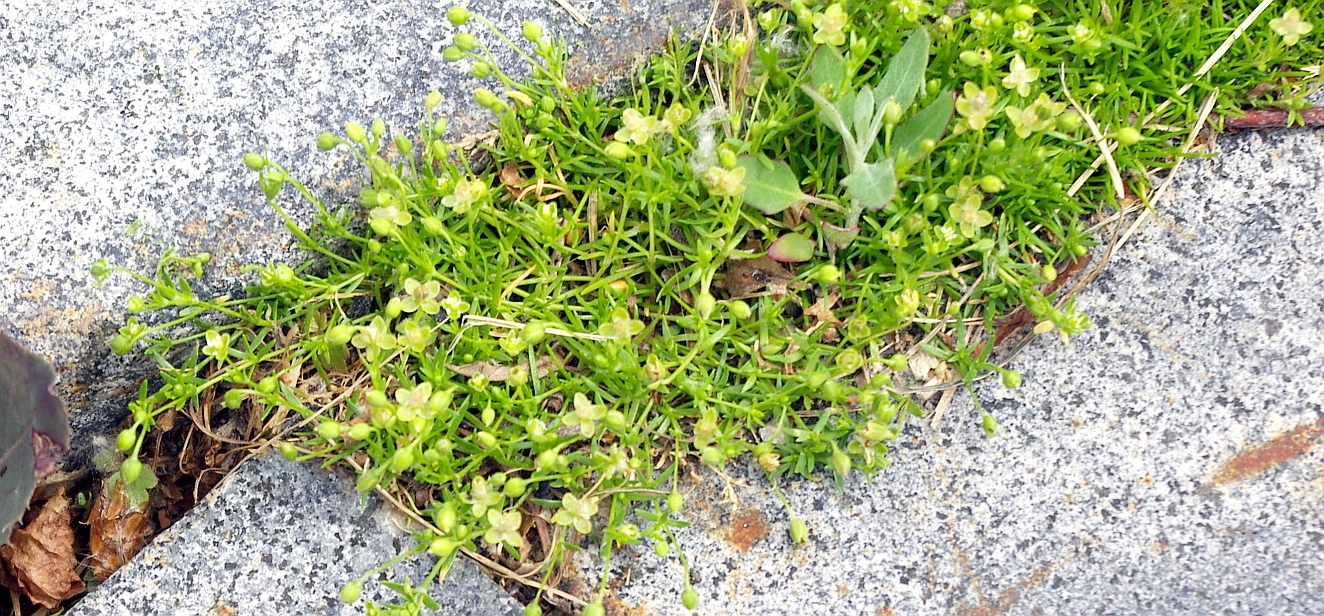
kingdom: Plantae
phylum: Tracheophyta
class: Magnoliopsida
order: Caryophyllales
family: Caryophyllaceae
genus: Sagina
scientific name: Sagina procumbens
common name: Procumbent pearlwort
